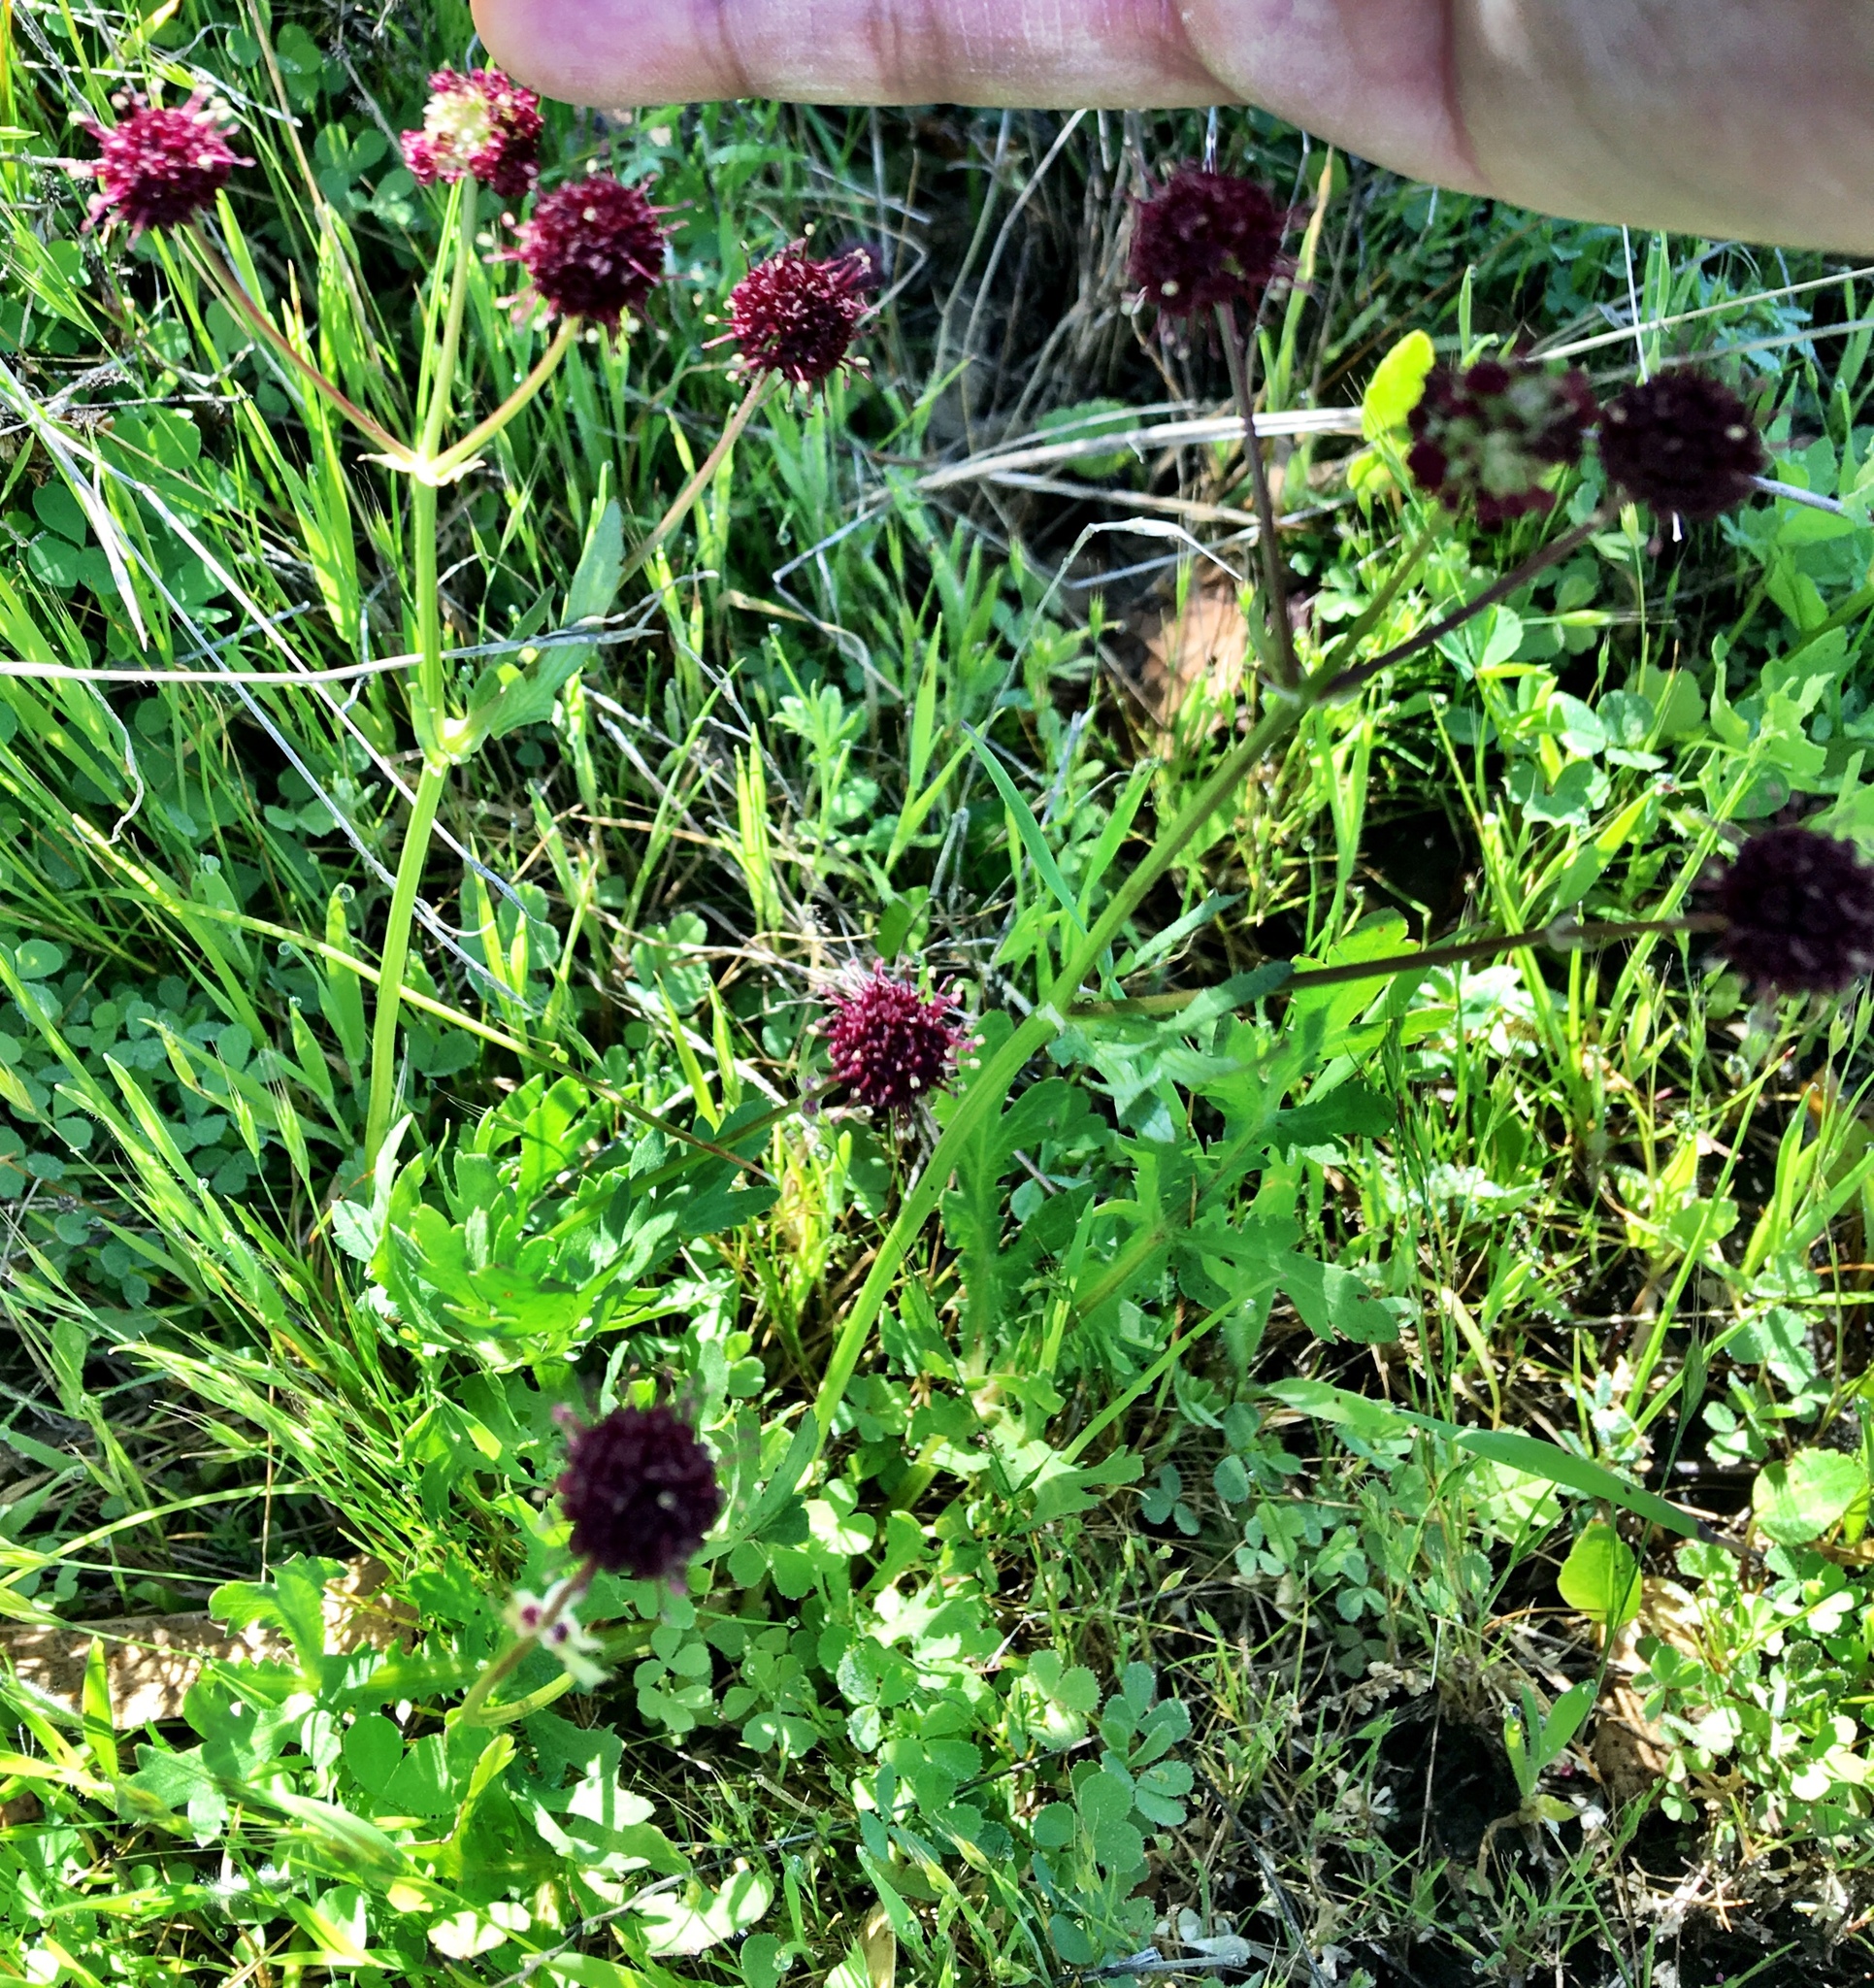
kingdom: Plantae
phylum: Tracheophyta
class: Magnoliopsida
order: Apiales
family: Apiaceae
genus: Sanicula
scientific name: Sanicula bipinnatifida
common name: Shoe-buttons
